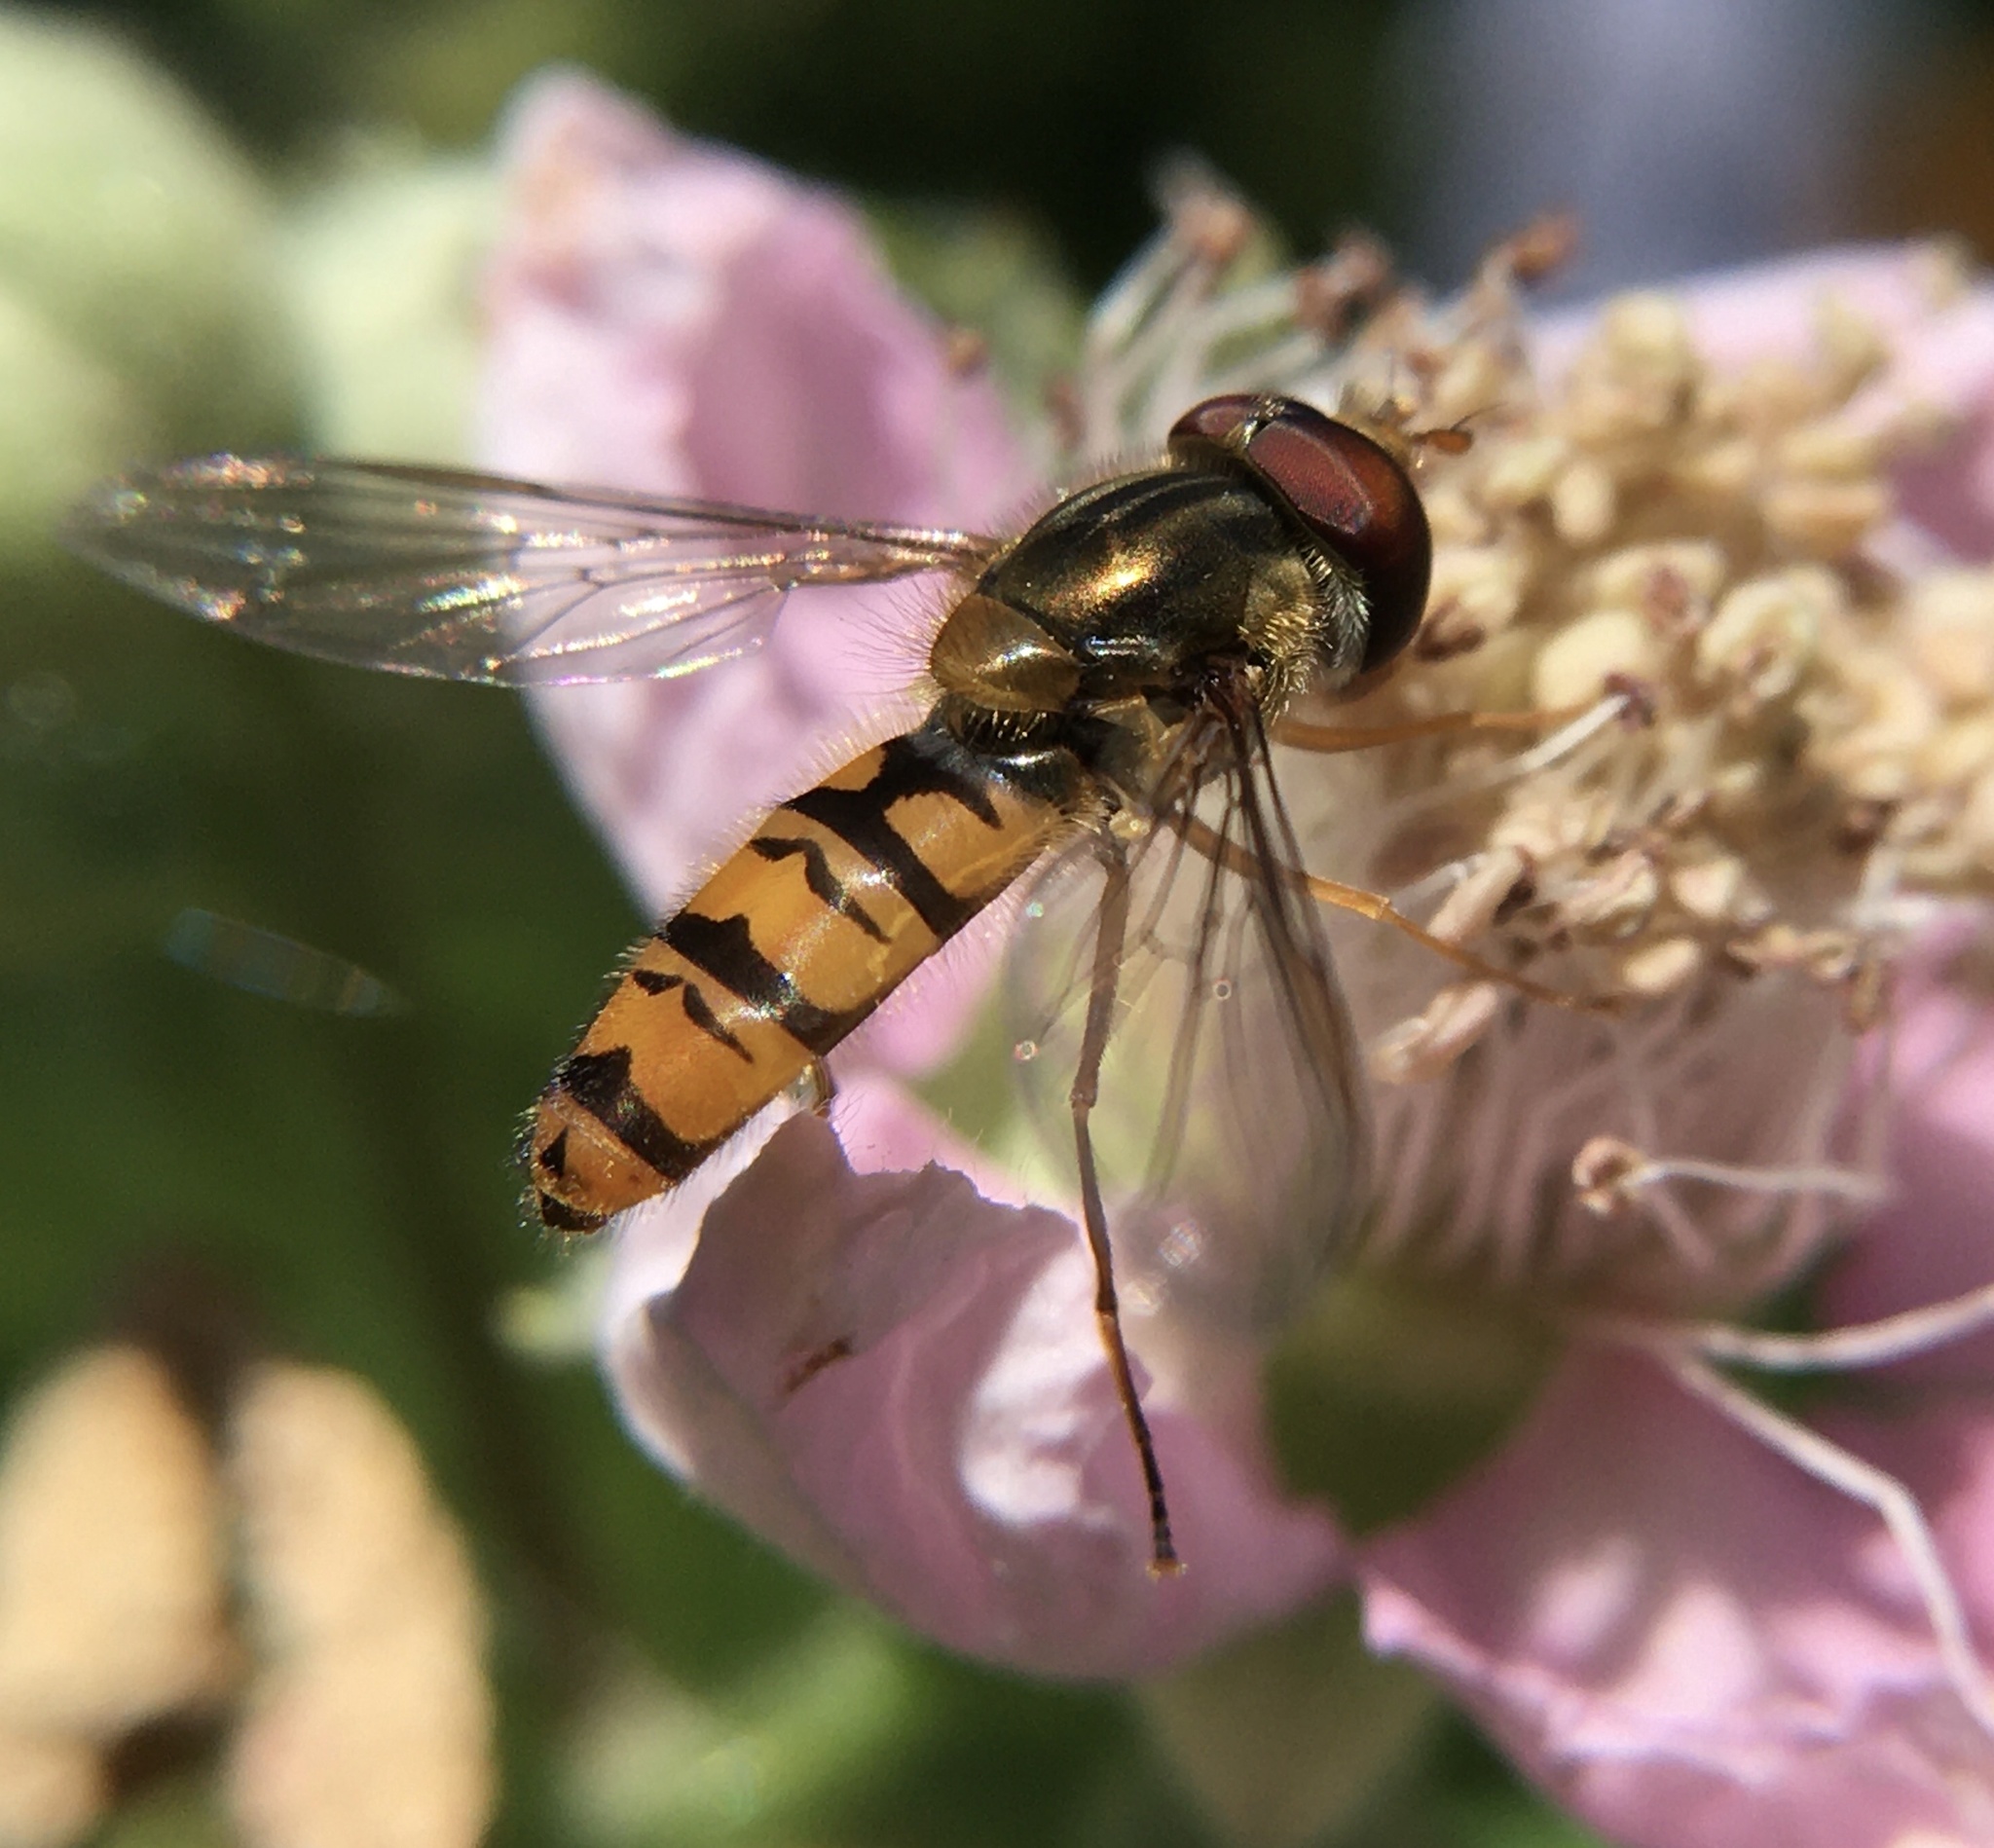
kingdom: Animalia
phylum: Arthropoda
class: Insecta
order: Diptera
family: Syrphidae
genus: Episyrphus
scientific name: Episyrphus balteatus
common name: Marmalade hoverfly
